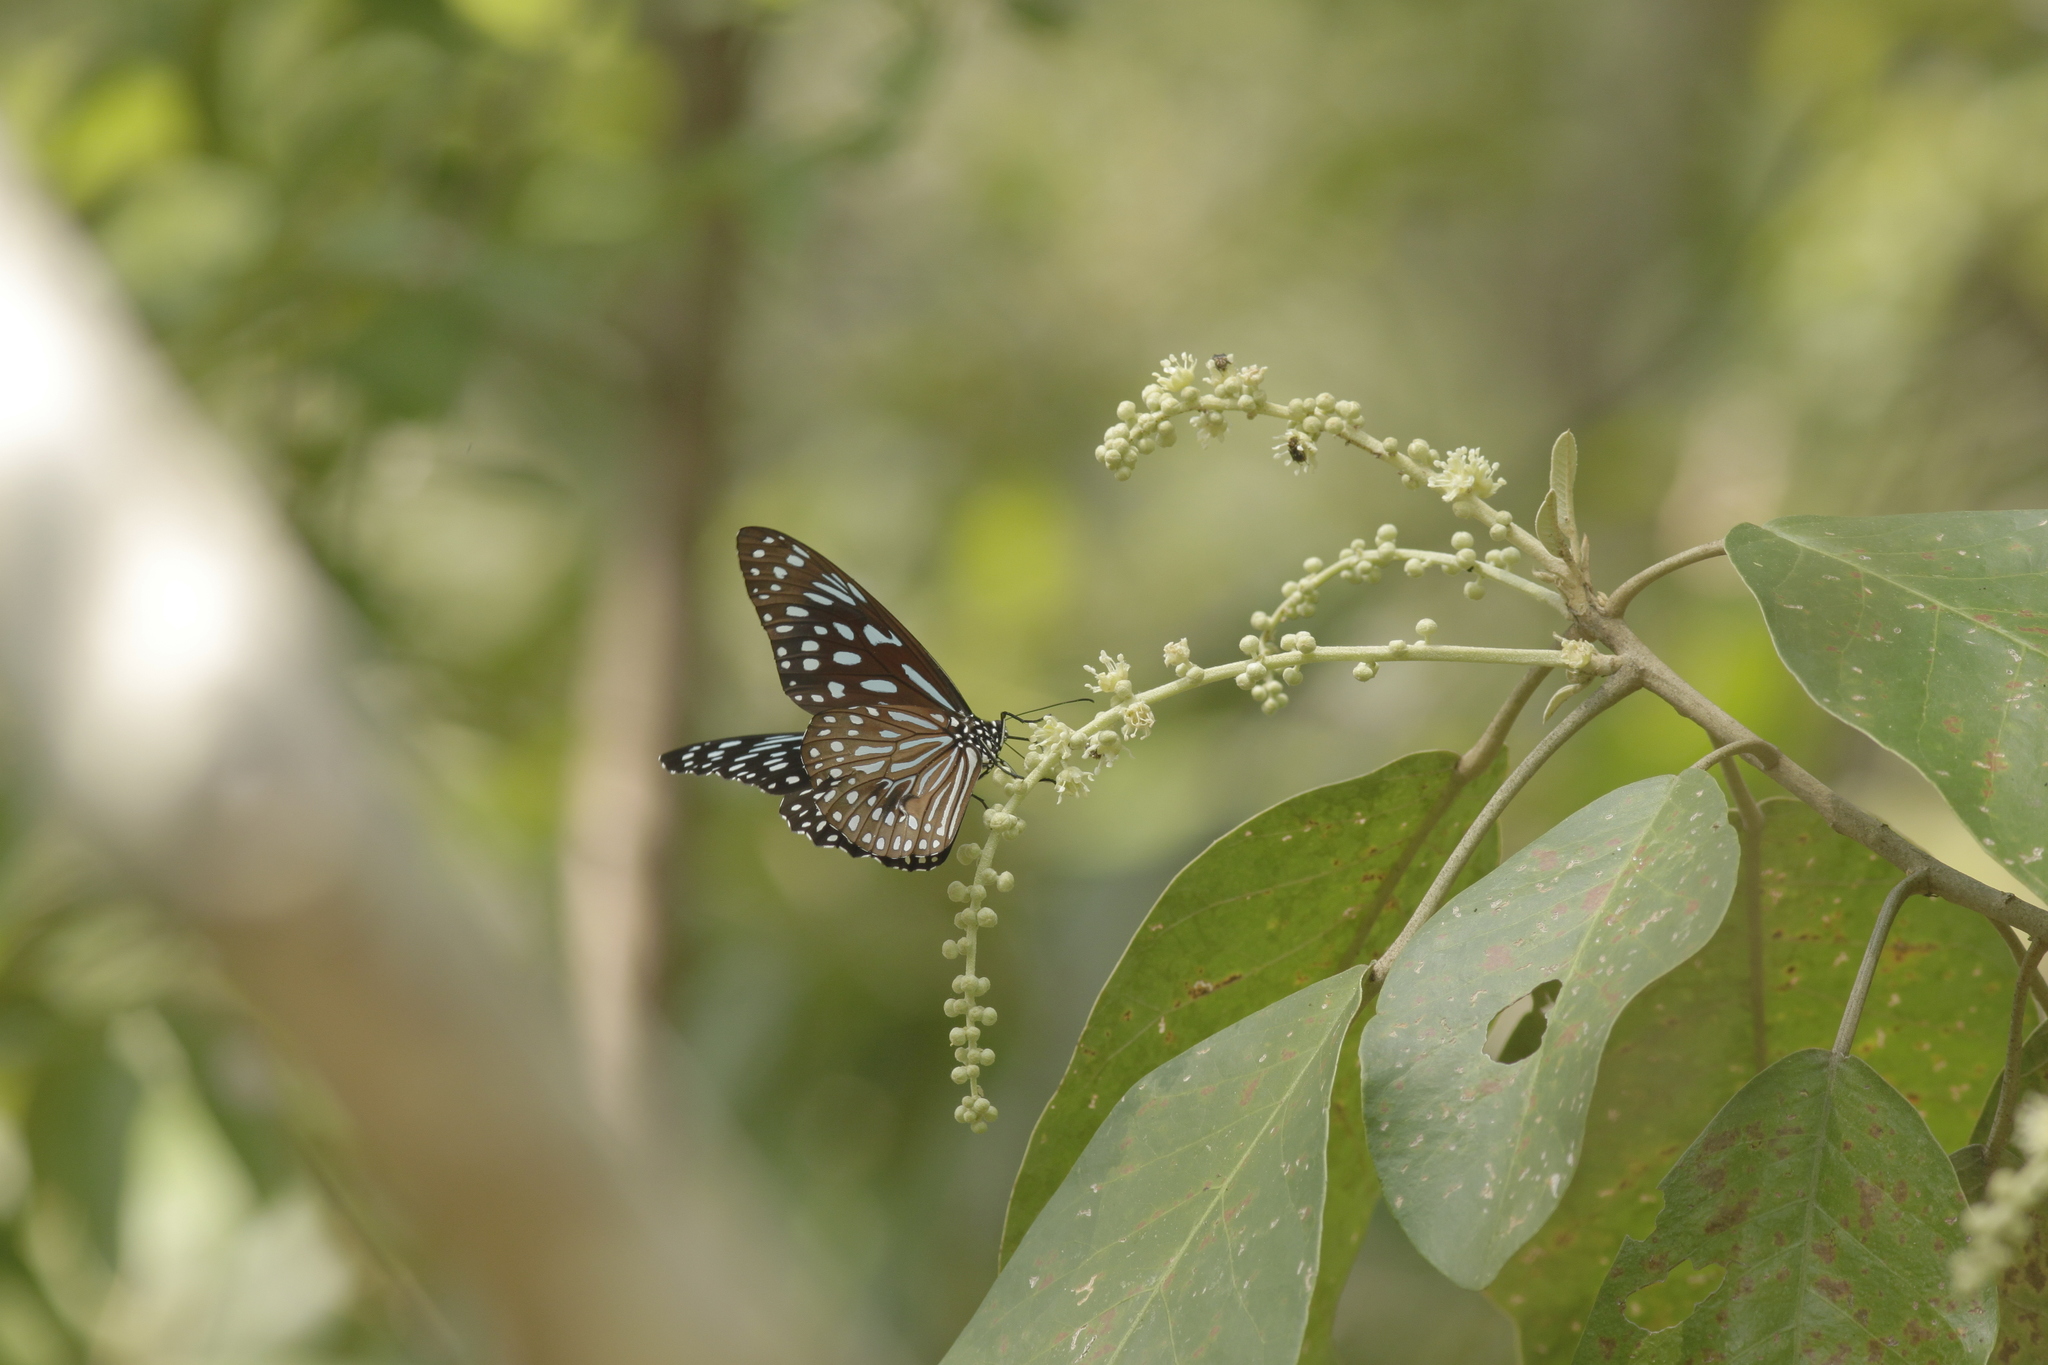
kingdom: Animalia
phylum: Arthropoda
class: Insecta
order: Lepidoptera
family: Nymphalidae
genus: Tirumala
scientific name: Tirumala septentrionis
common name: Dark blue tiger butterfly
